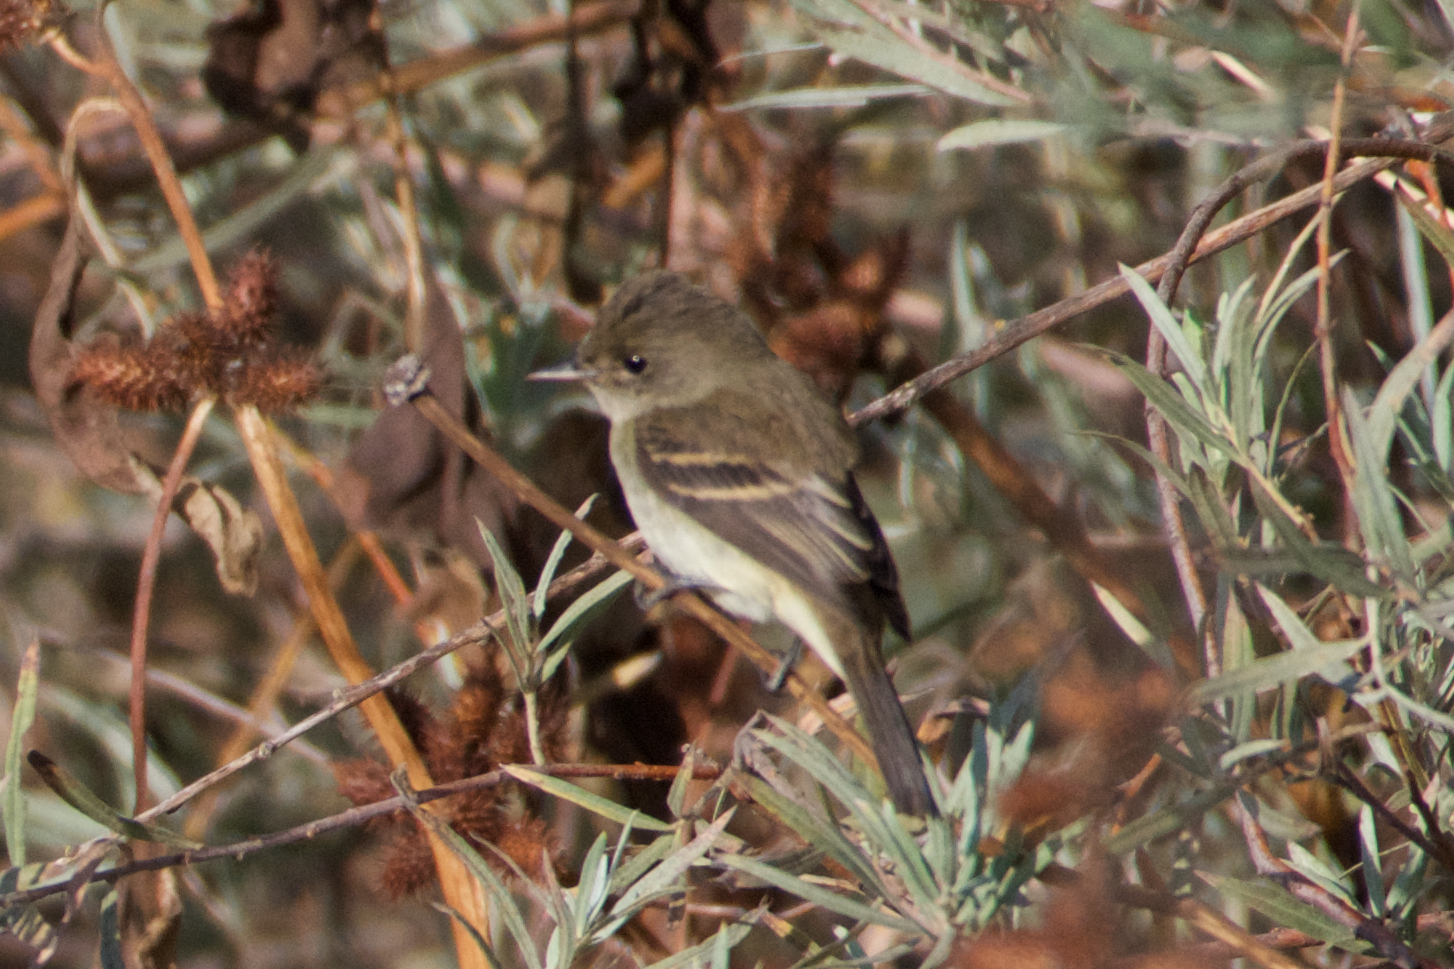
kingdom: Animalia
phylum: Chordata
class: Aves
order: Passeriformes
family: Tyrannidae
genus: Empidonax
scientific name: Empidonax traillii
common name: Willow flycatcher
